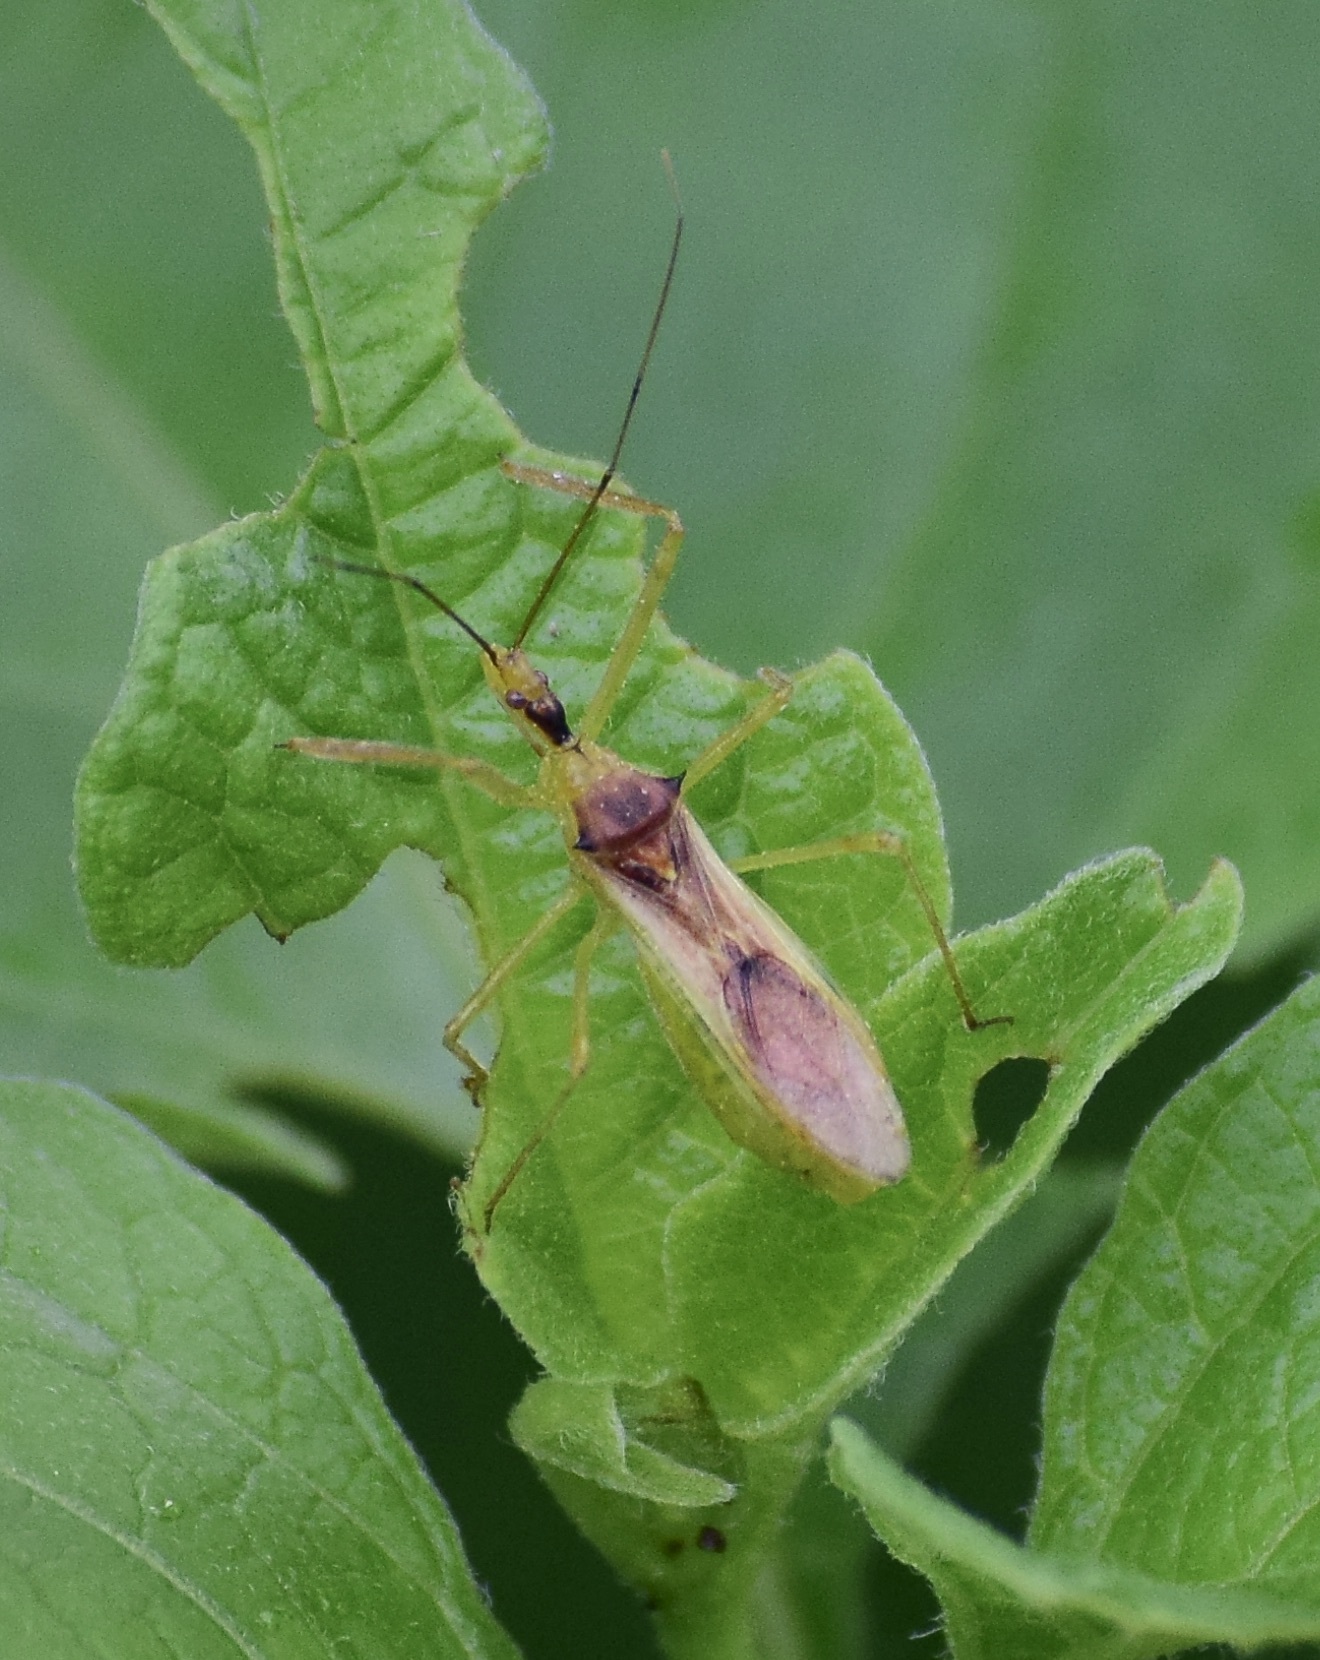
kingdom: Animalia
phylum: Arthropoda
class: Insecta
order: Hemiptera
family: Reduviidae
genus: Zelus
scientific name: Zelus luridus
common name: Pale green assassin bug
